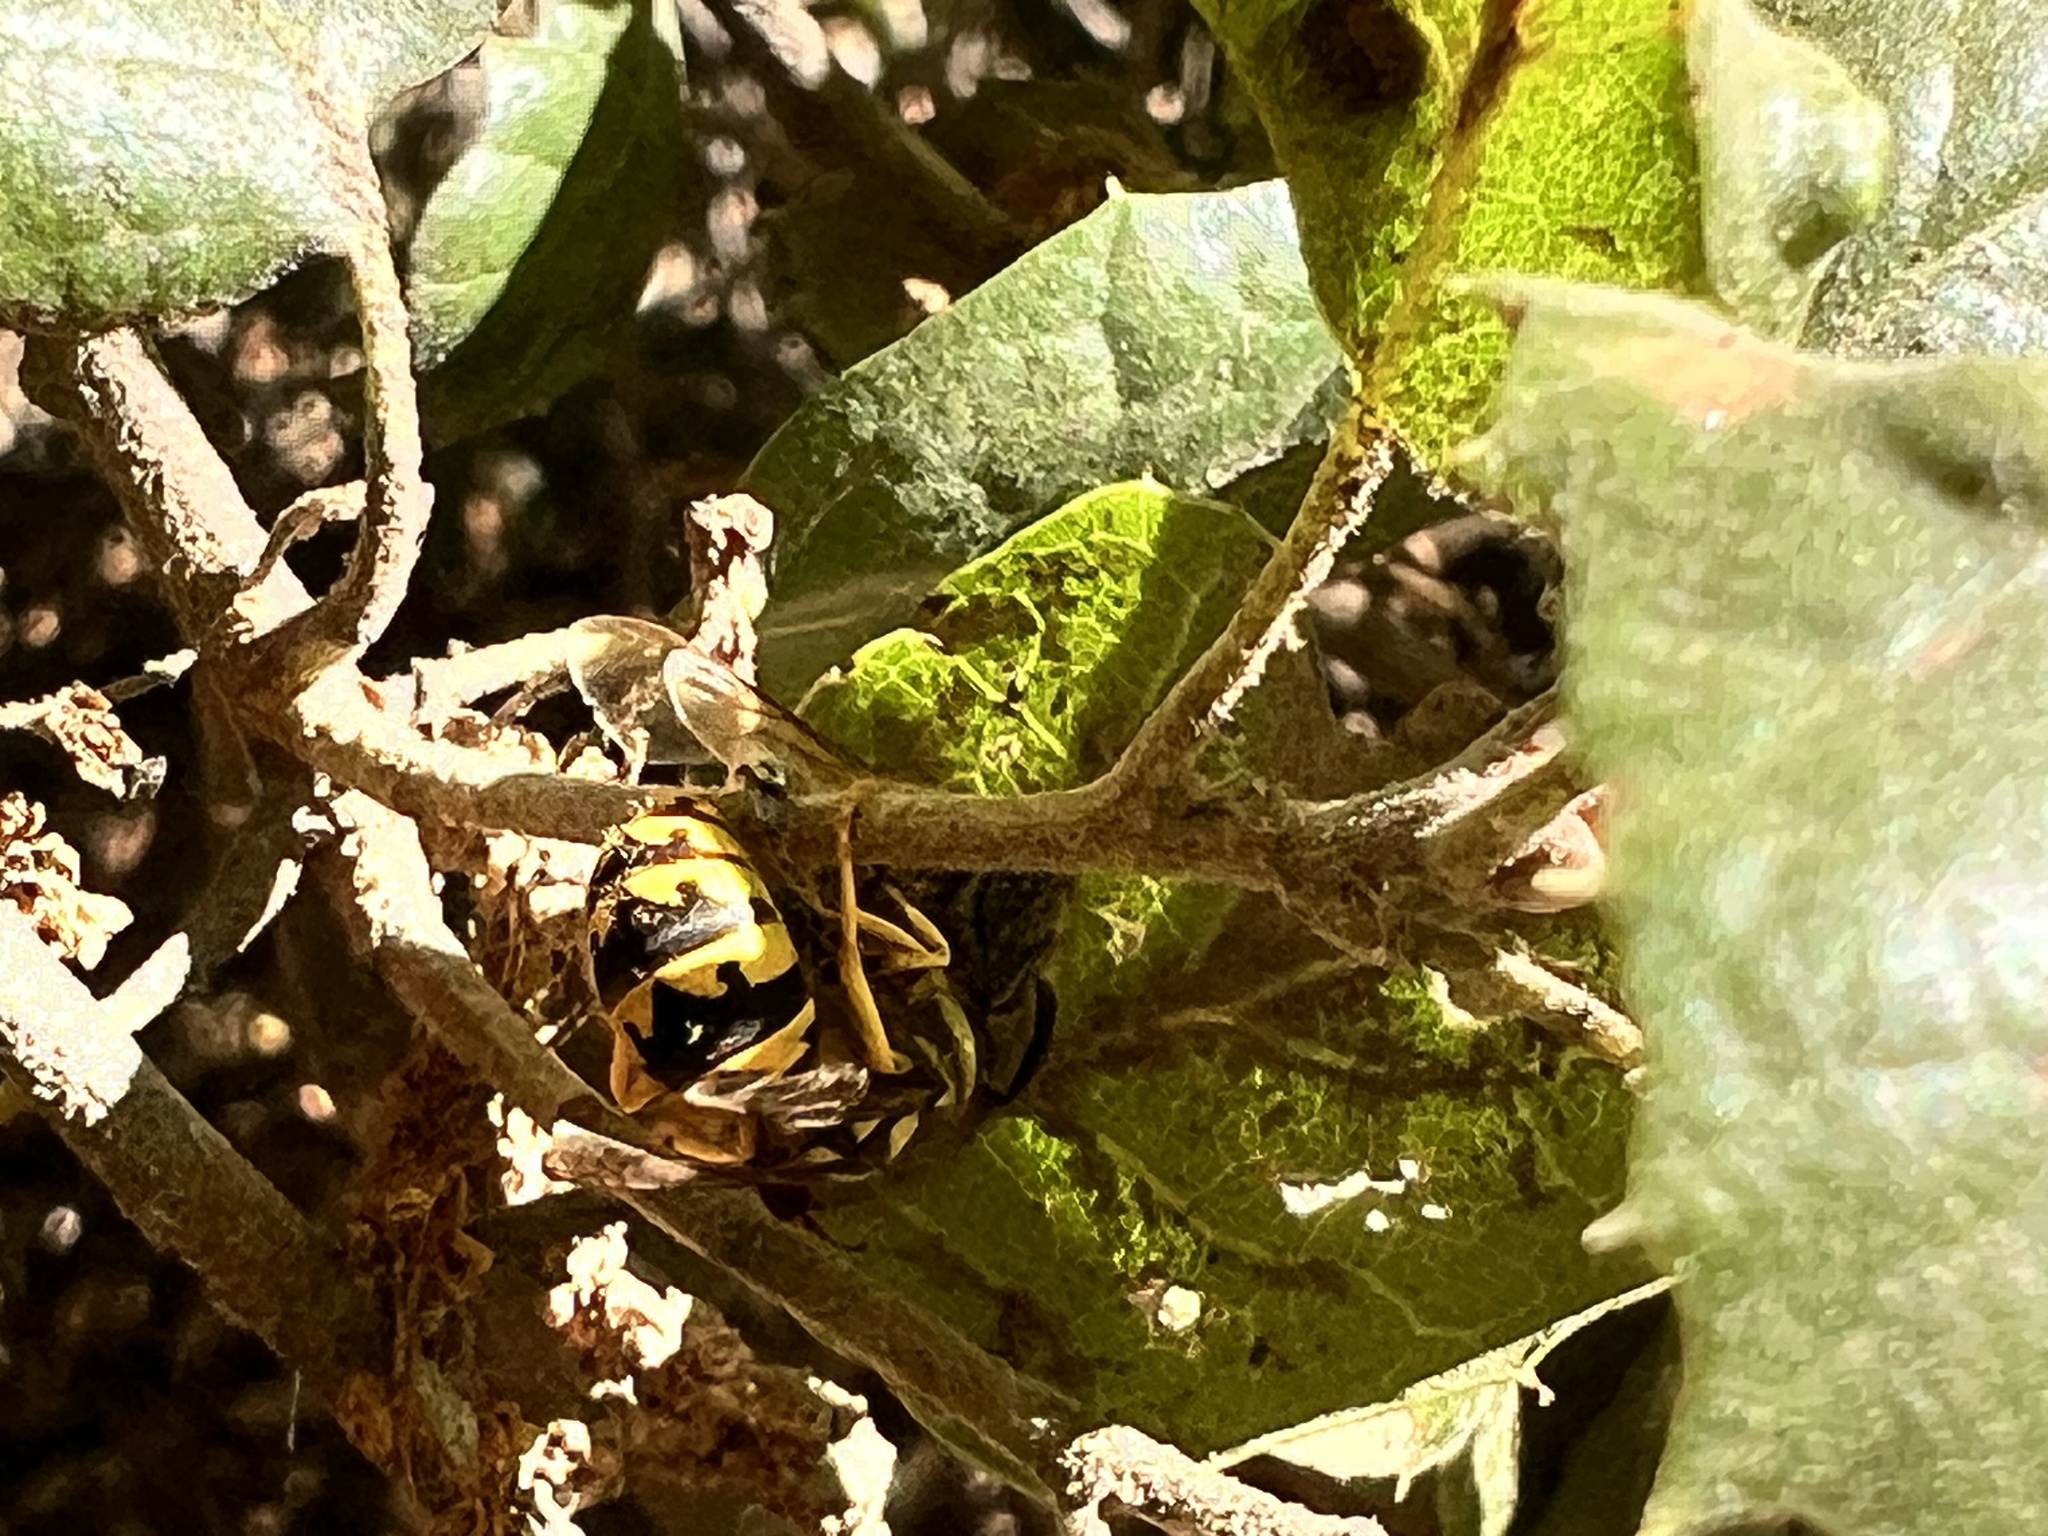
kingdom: Animalia
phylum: Arthropoda
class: Insecta
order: Hymenoptera
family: Vespidae
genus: Vespula
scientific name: Vespula pensylvanica
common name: Western yellowjacket
